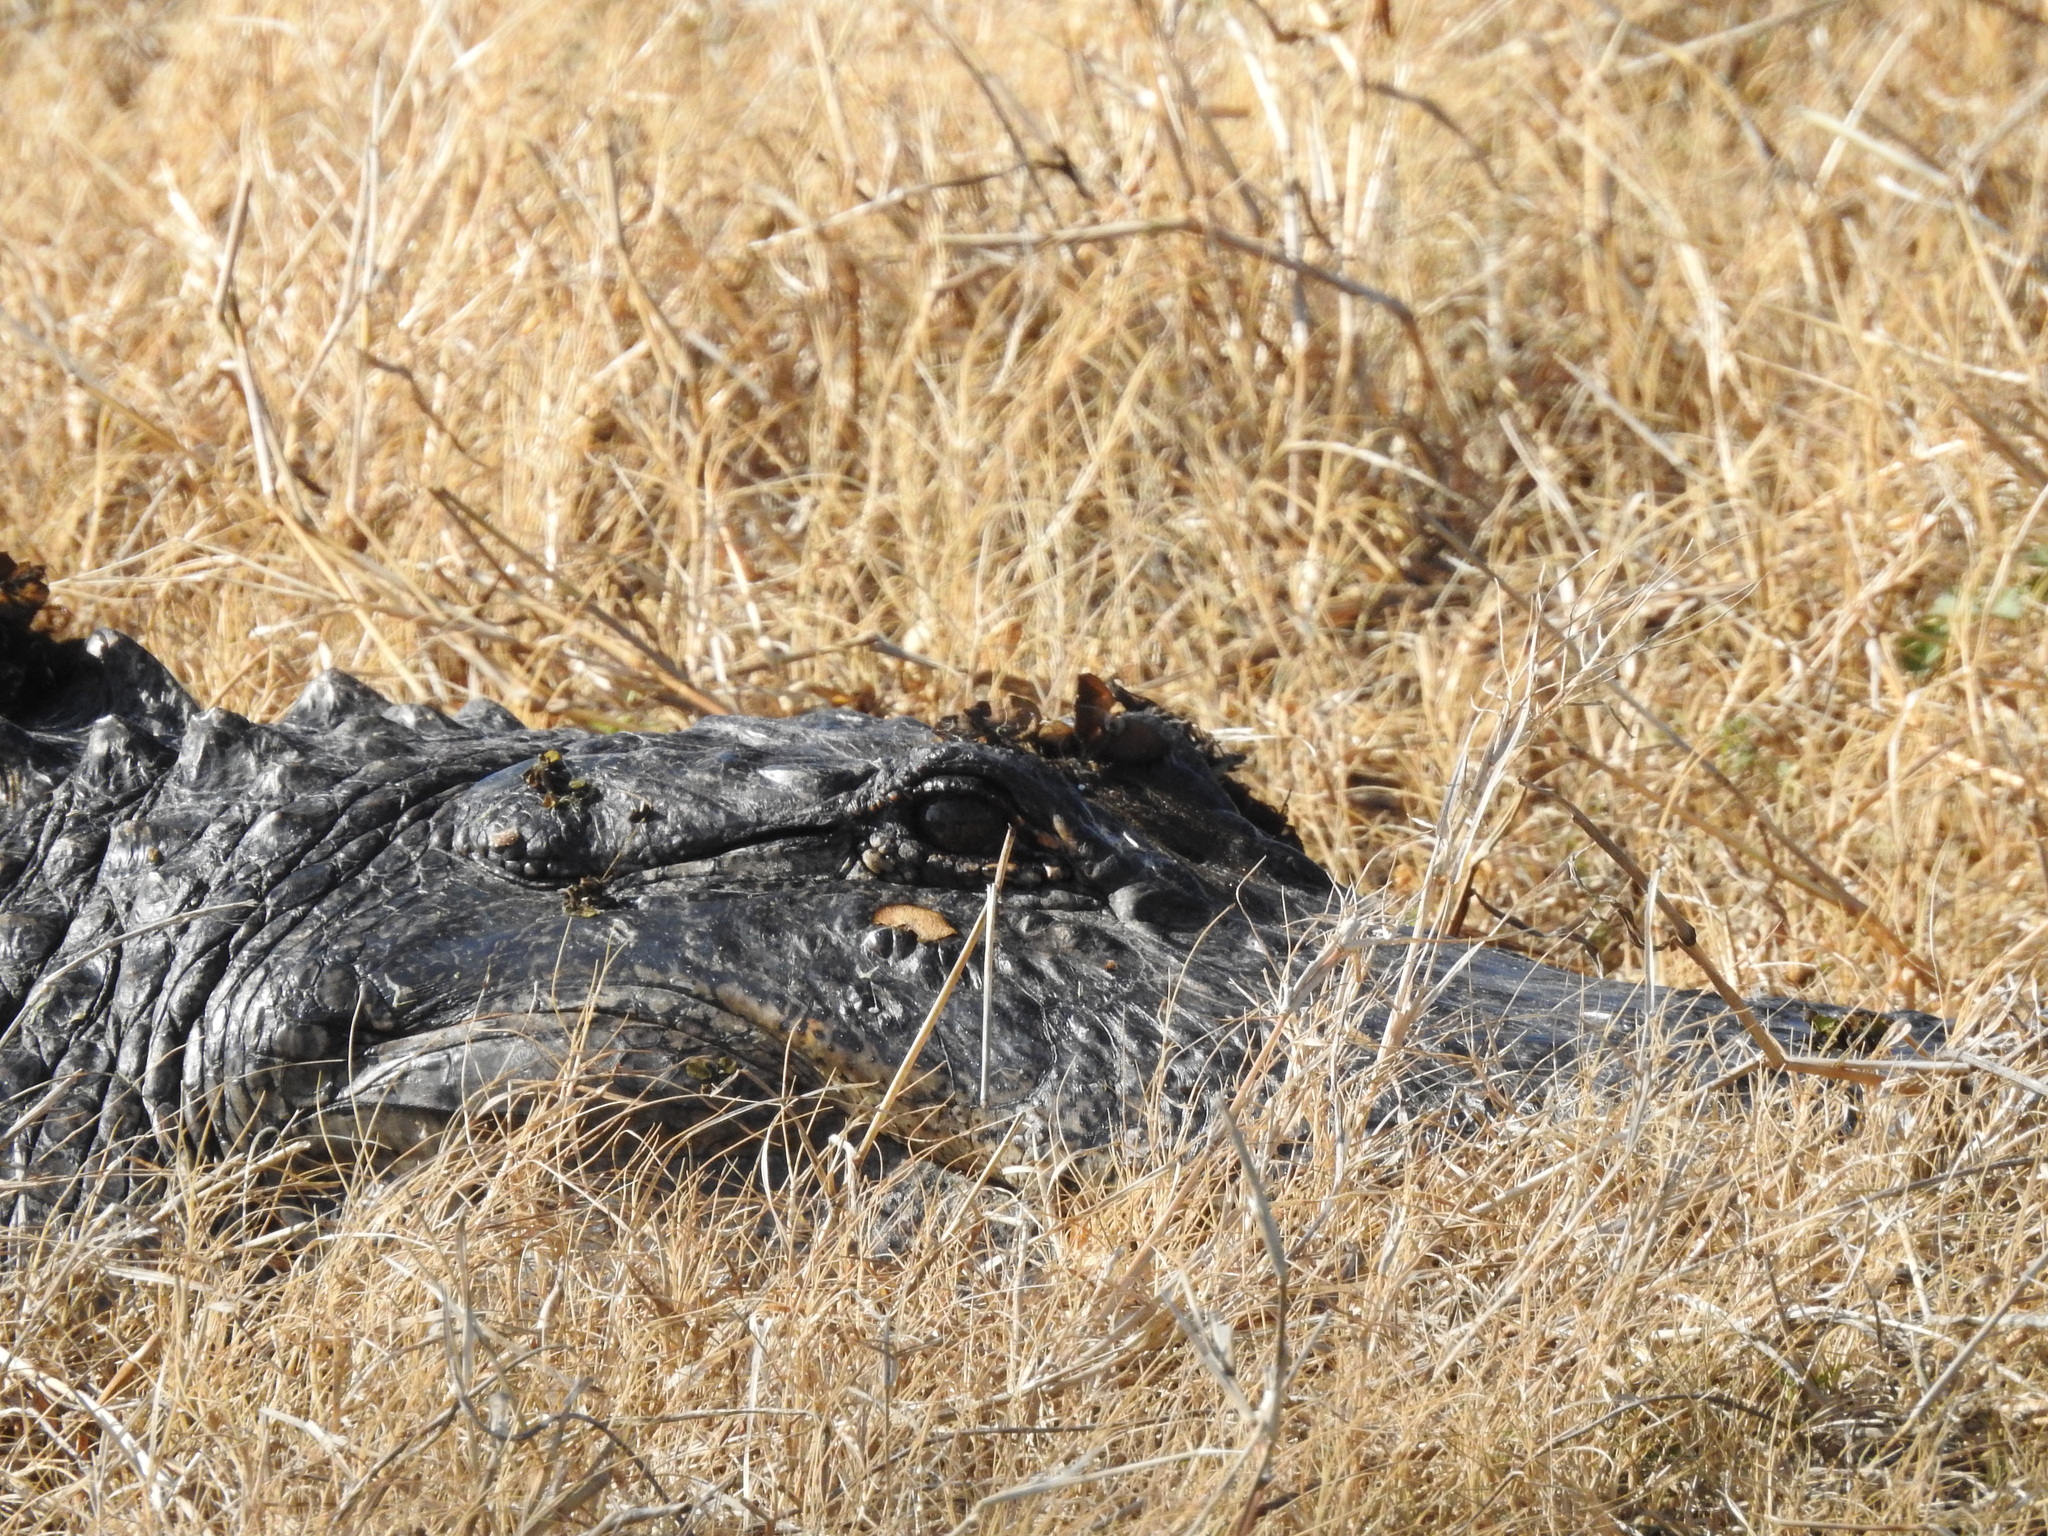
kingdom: Animalia
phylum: Chordata
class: Crocodylia
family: Alligatoridae
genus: Alligator
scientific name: Alligator mississippiensis
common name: American alligator
